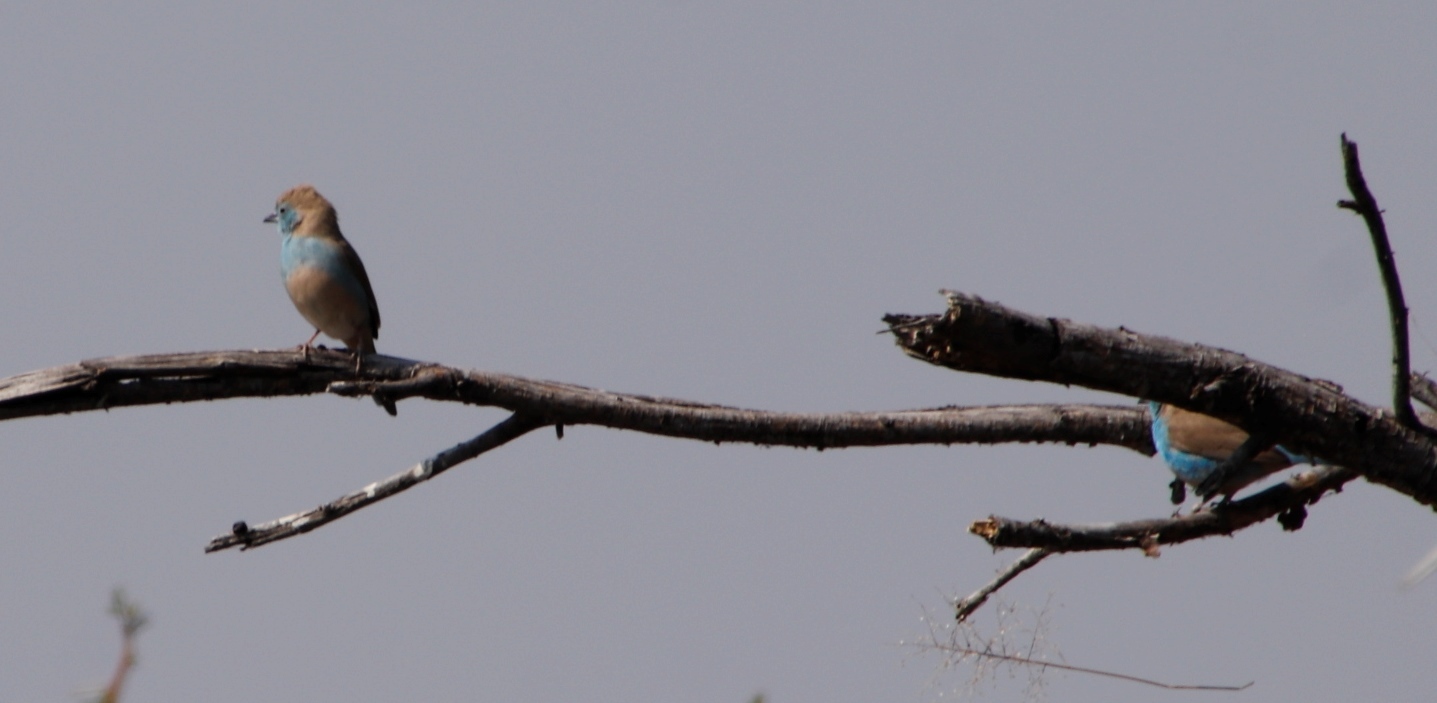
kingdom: Animalia
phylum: Chordata
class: Aves
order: Passeriformes
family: Estrildidae
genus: Uraeginthus
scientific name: Uraeginthus angolensis
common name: Blue waxbill
